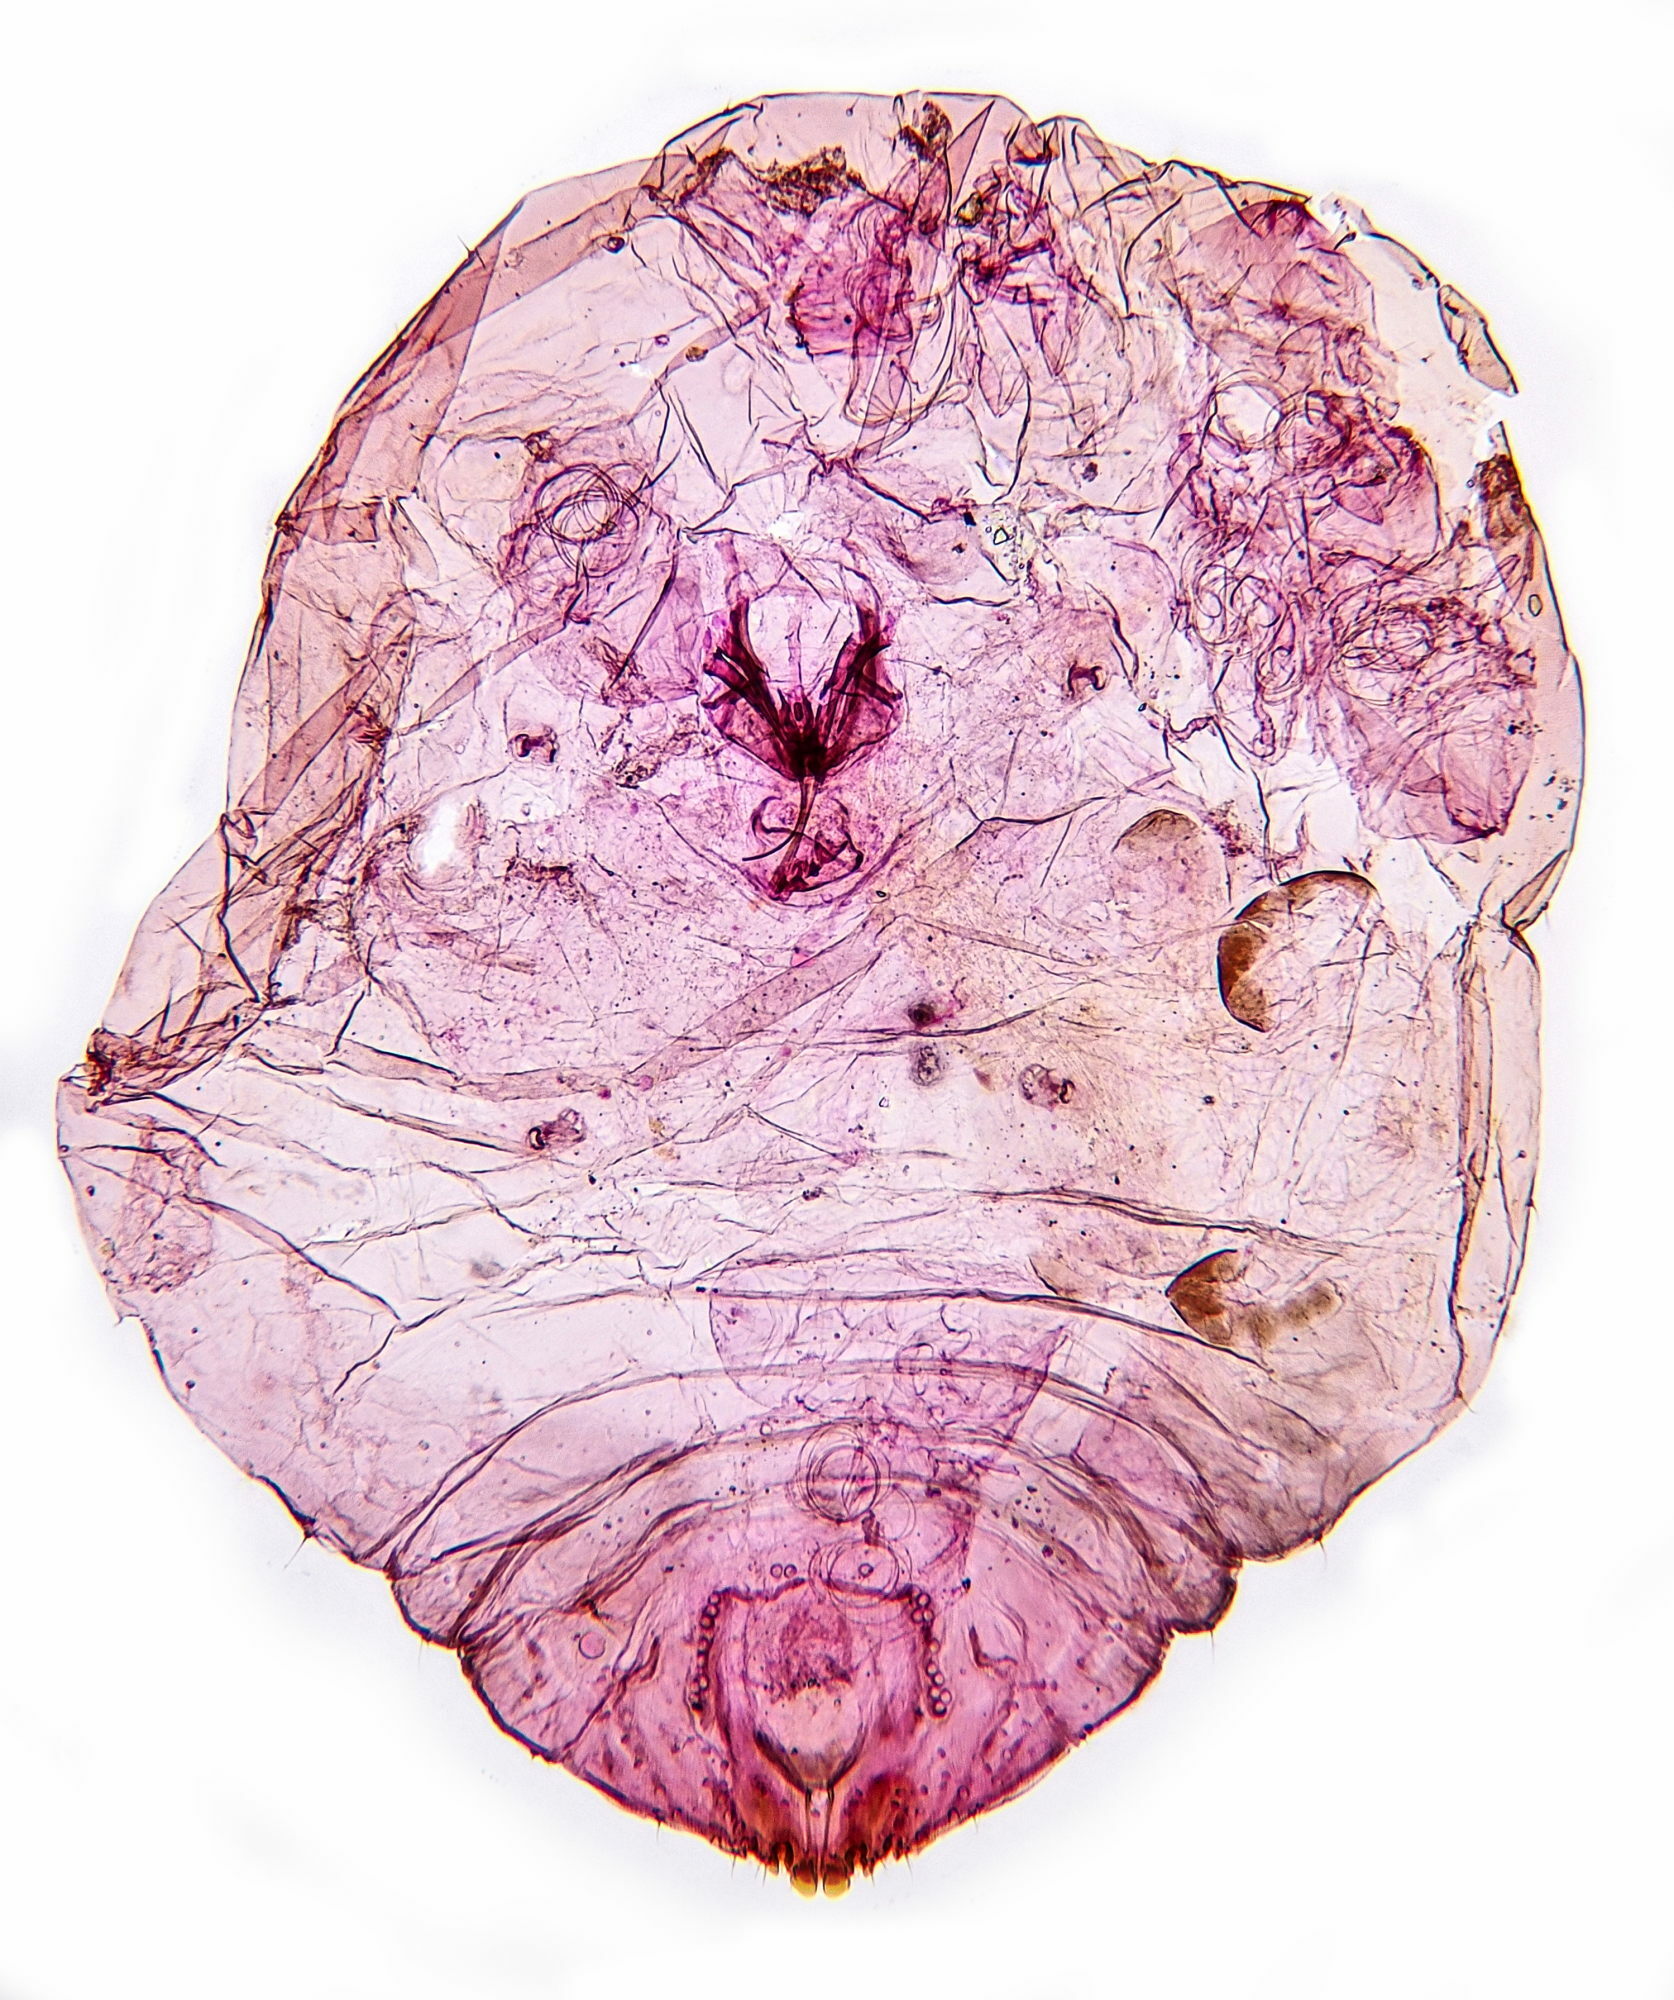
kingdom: Animalia
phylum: Arthropoda
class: Insecta
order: Hemiptera
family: Diaspididae
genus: Diaspidiotus
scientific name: Diaspidiotus ostreaeformis
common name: European fruit scale
